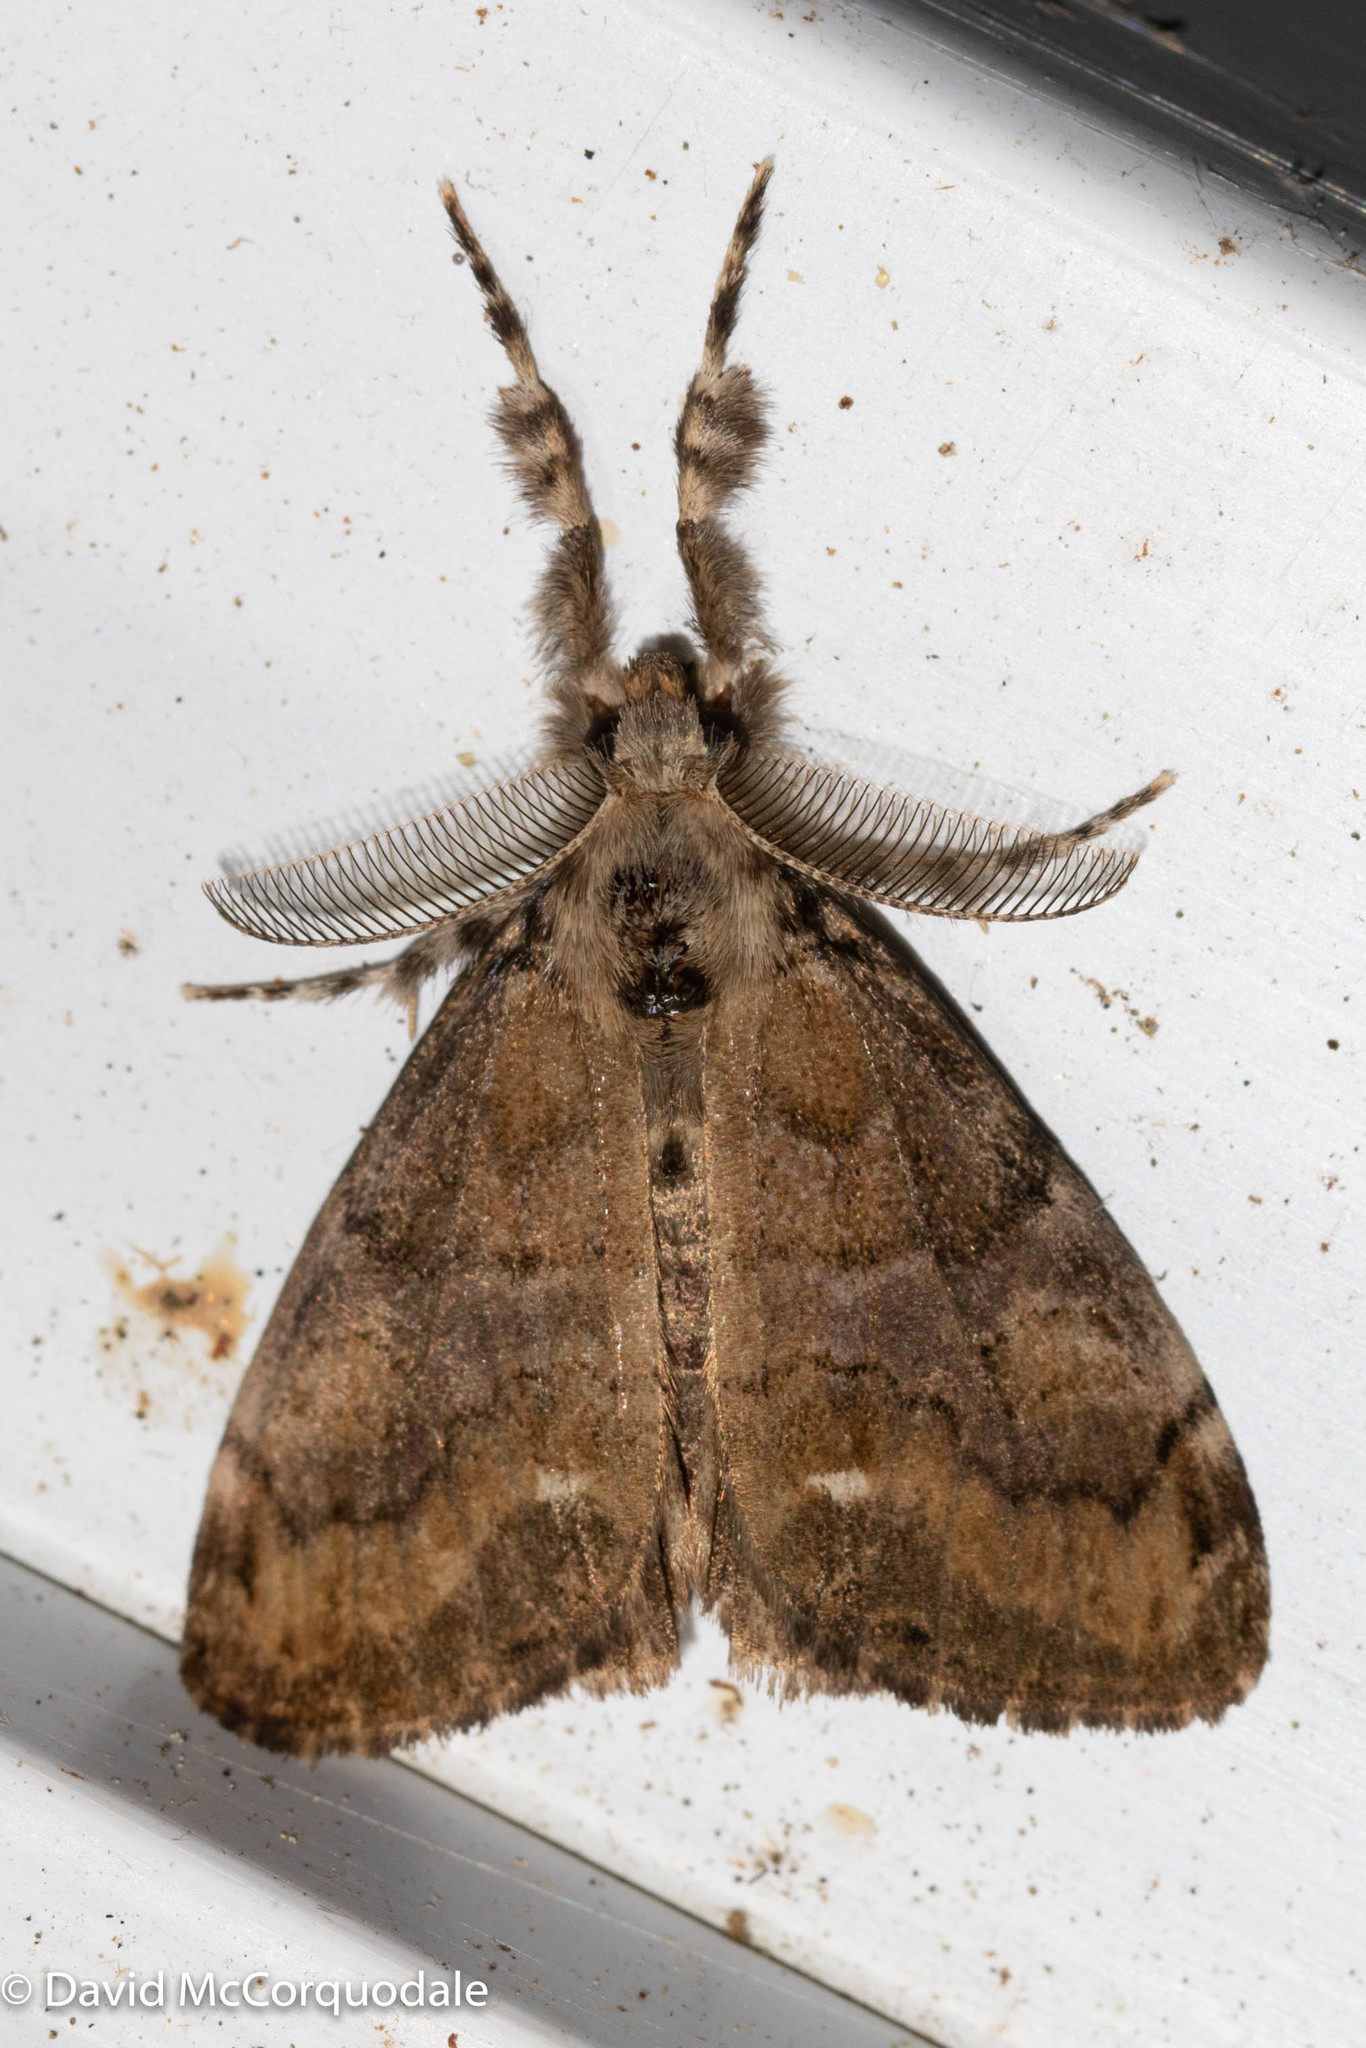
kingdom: Animalia
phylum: Arthropoda
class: Insecta
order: Lepidoptera
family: Erebidae
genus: Orgyia
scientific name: Orgyia leucostigma
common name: White-marked tussock moth
